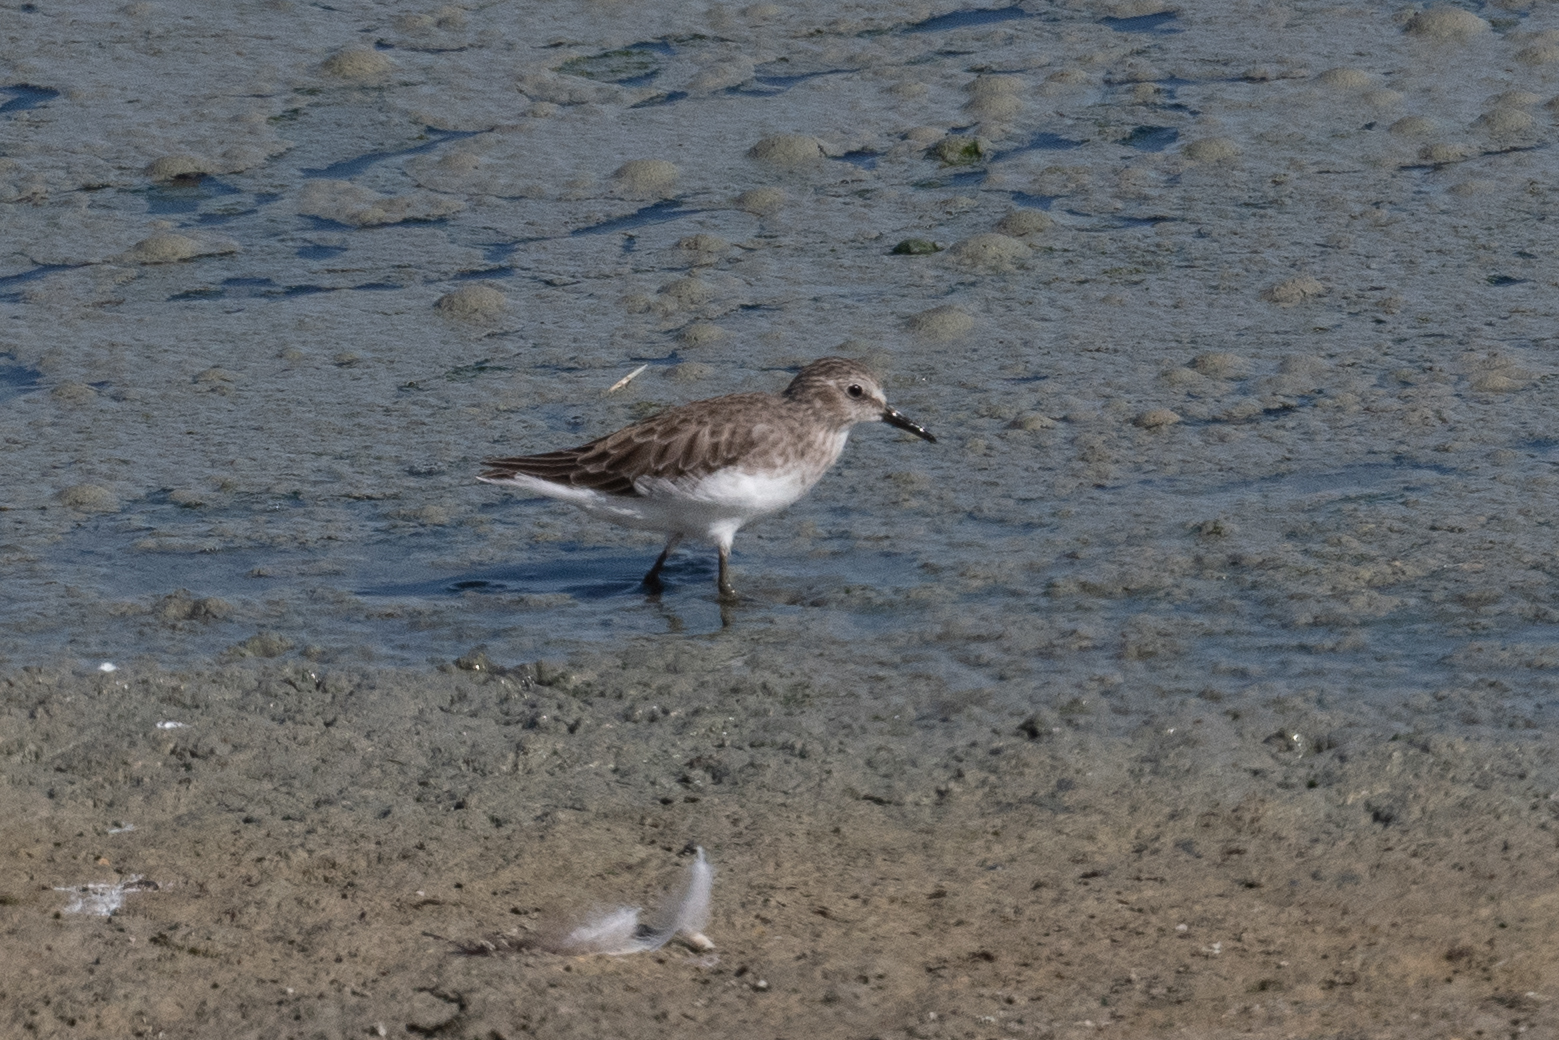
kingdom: Animalia
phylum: Chordata
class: Aves
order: Charadriiformes
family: Scolopacidae
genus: Calidris
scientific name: Calidris minutilla
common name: Least sandpiper
